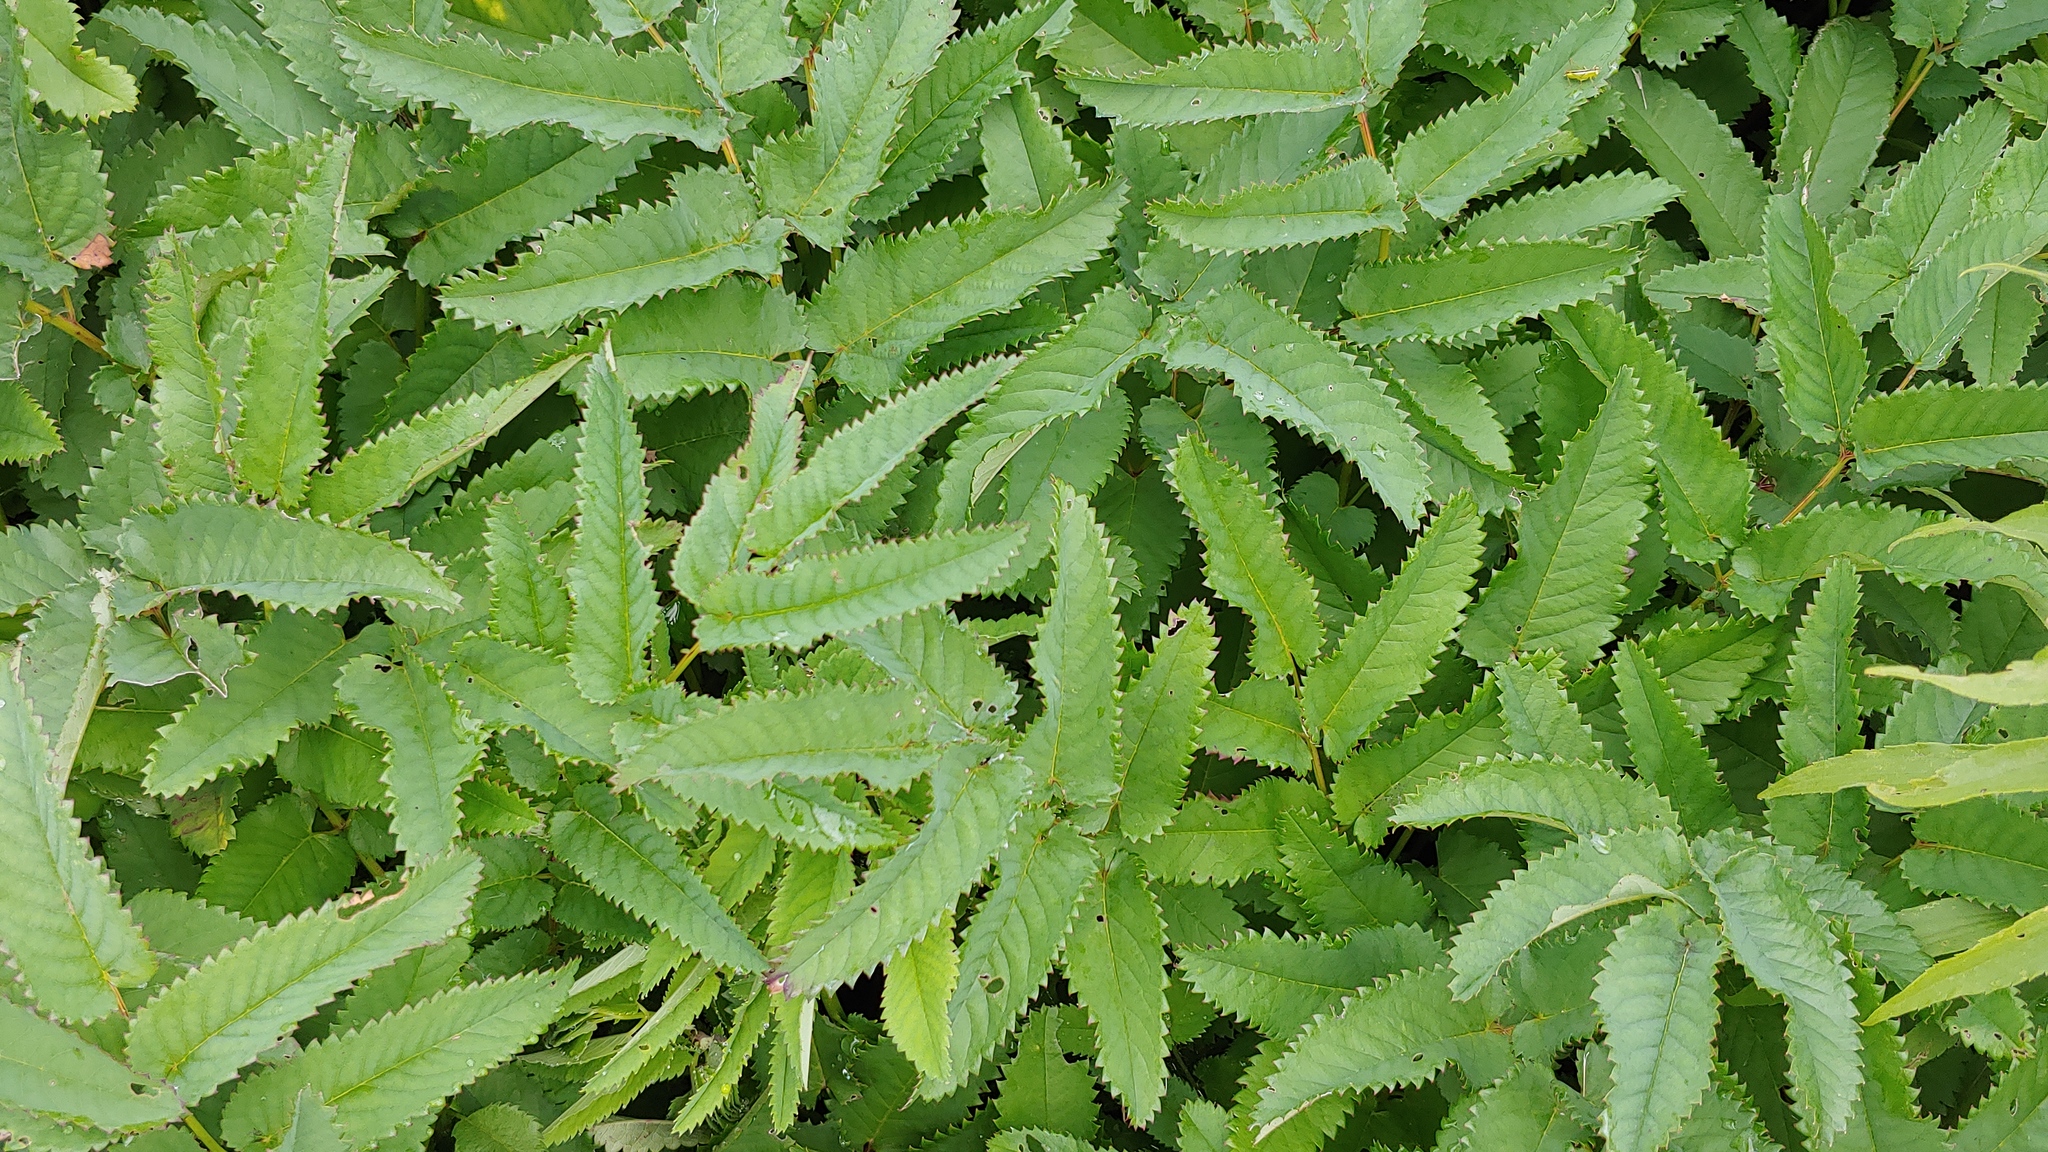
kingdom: Plantae
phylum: Tracheophyta
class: Magnoliopsida
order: Rosales
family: Rosaceae
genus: Sanguisorba
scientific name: Sanguisorba canadensis
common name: White burnet
